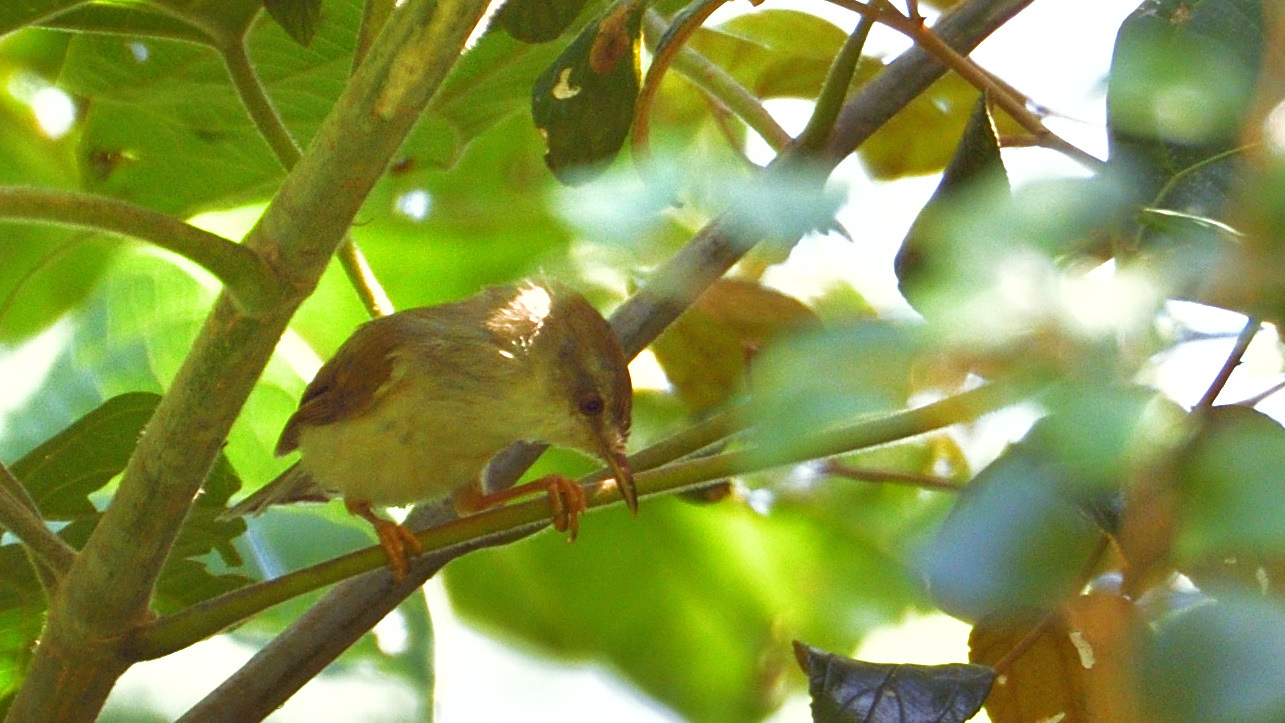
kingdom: Animalia
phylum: Chordata
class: Aves
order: Passeriformes
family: Cisticolidae
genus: Prinia
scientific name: Prinia hodgsonii
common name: Grey-breasted prinia
